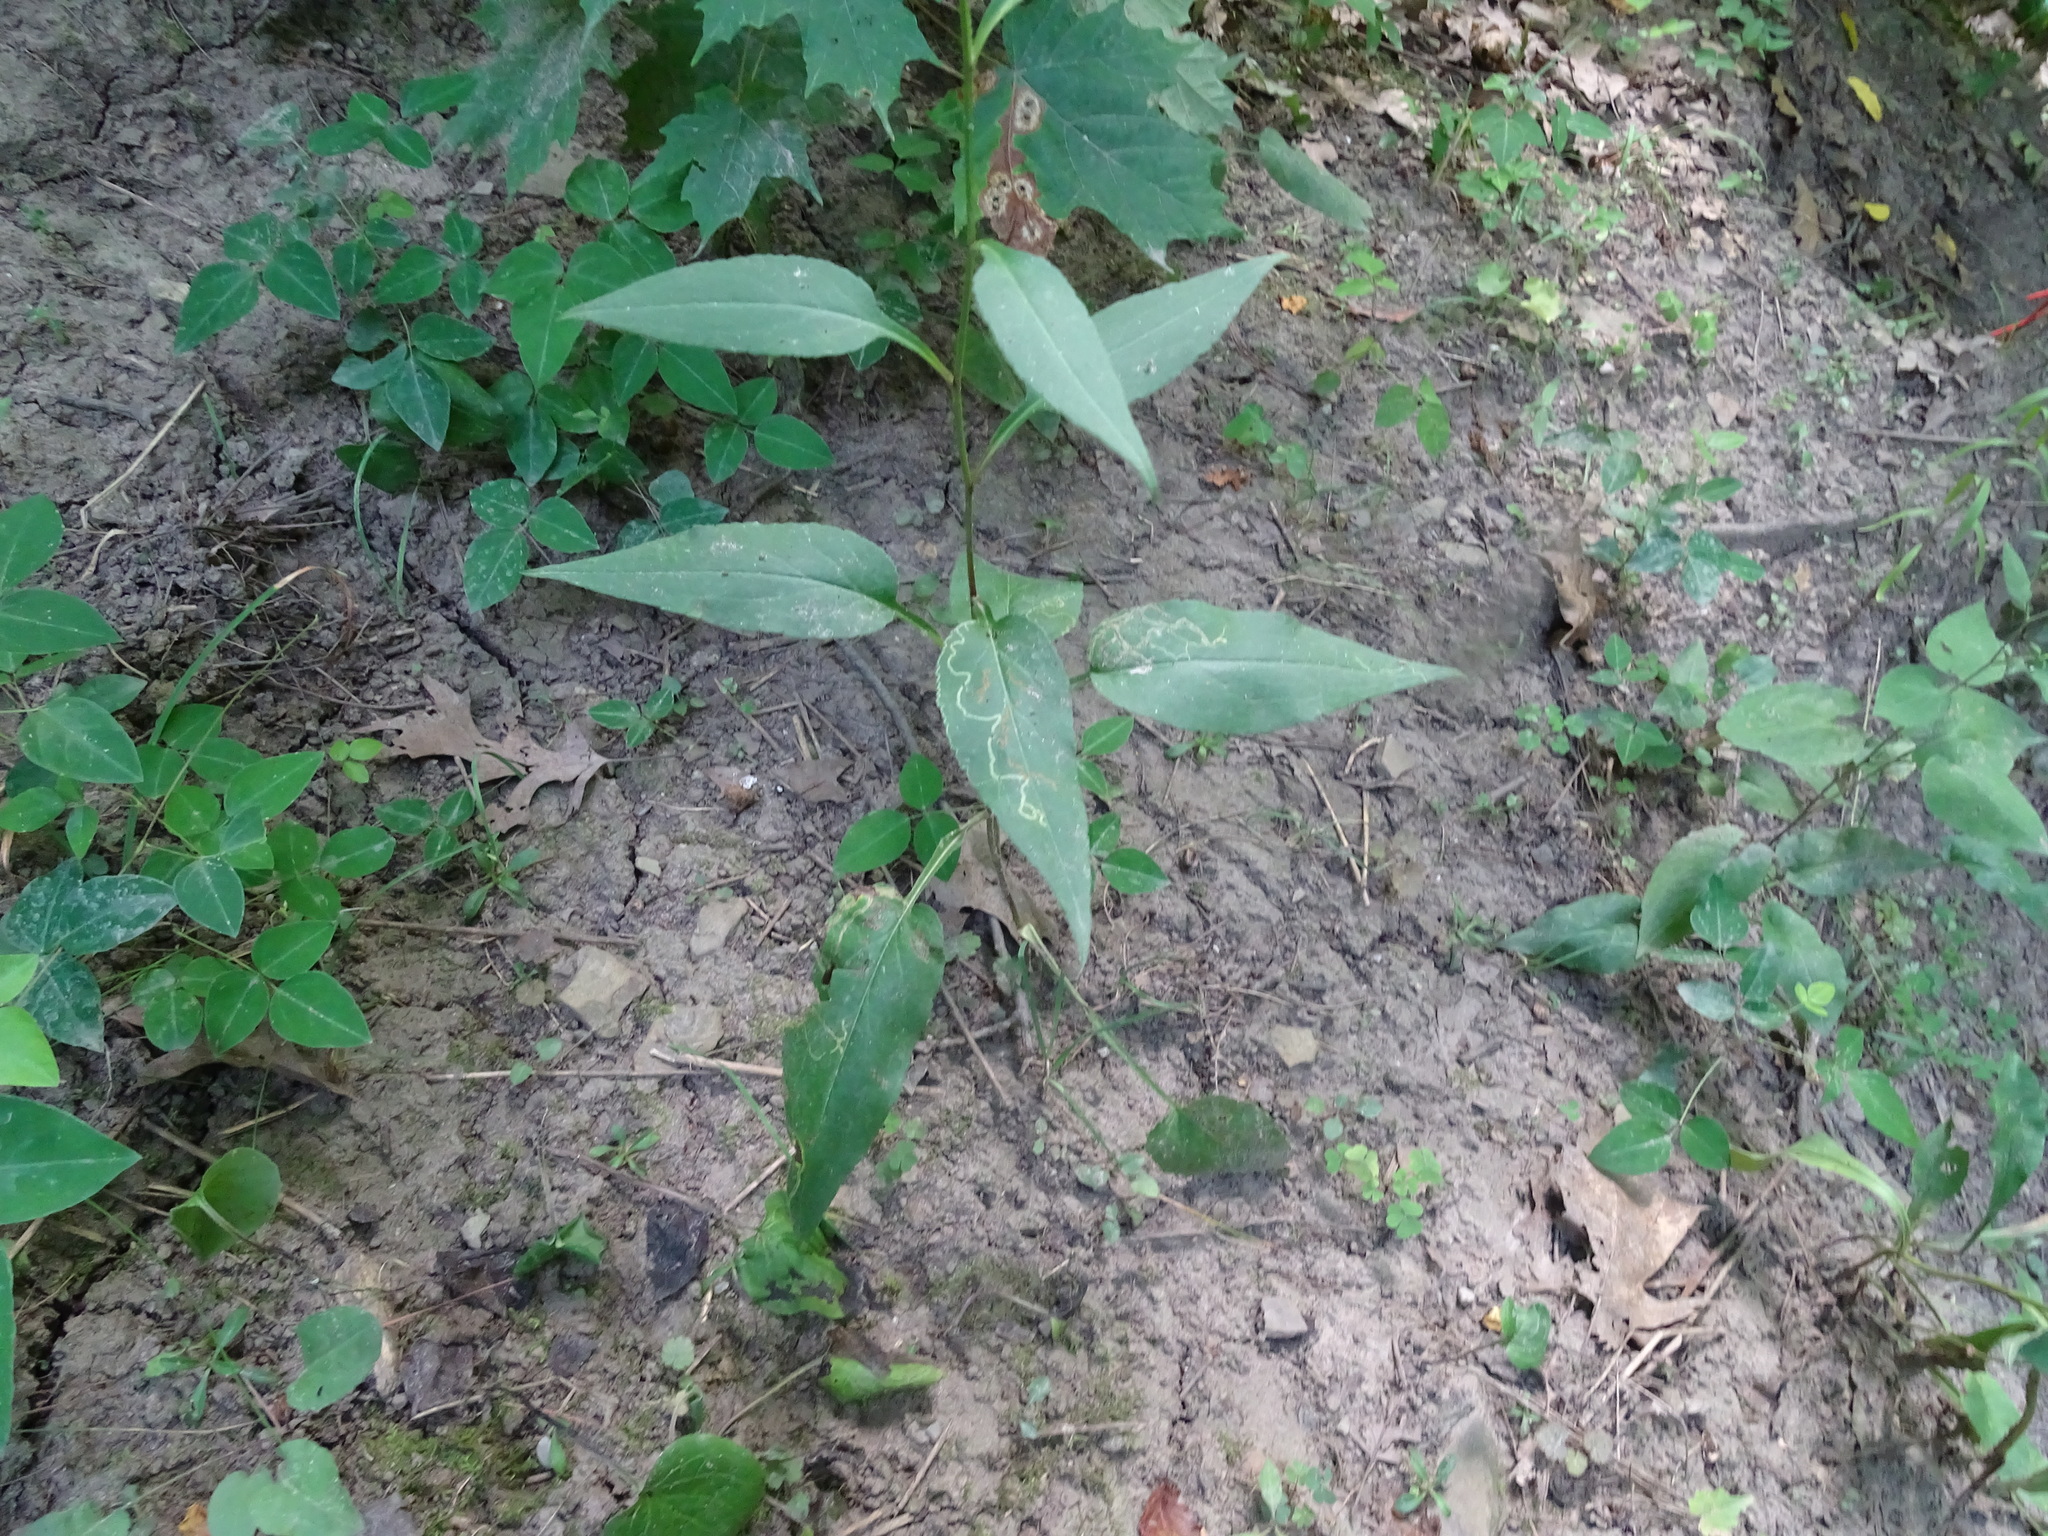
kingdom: Plantae
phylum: Tracheophyta
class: Magnoliopsida
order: Asterales
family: Asteraceae
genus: Symphyotrichum
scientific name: Symphyotrichum urophyllum
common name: Arrow-leaved aster
